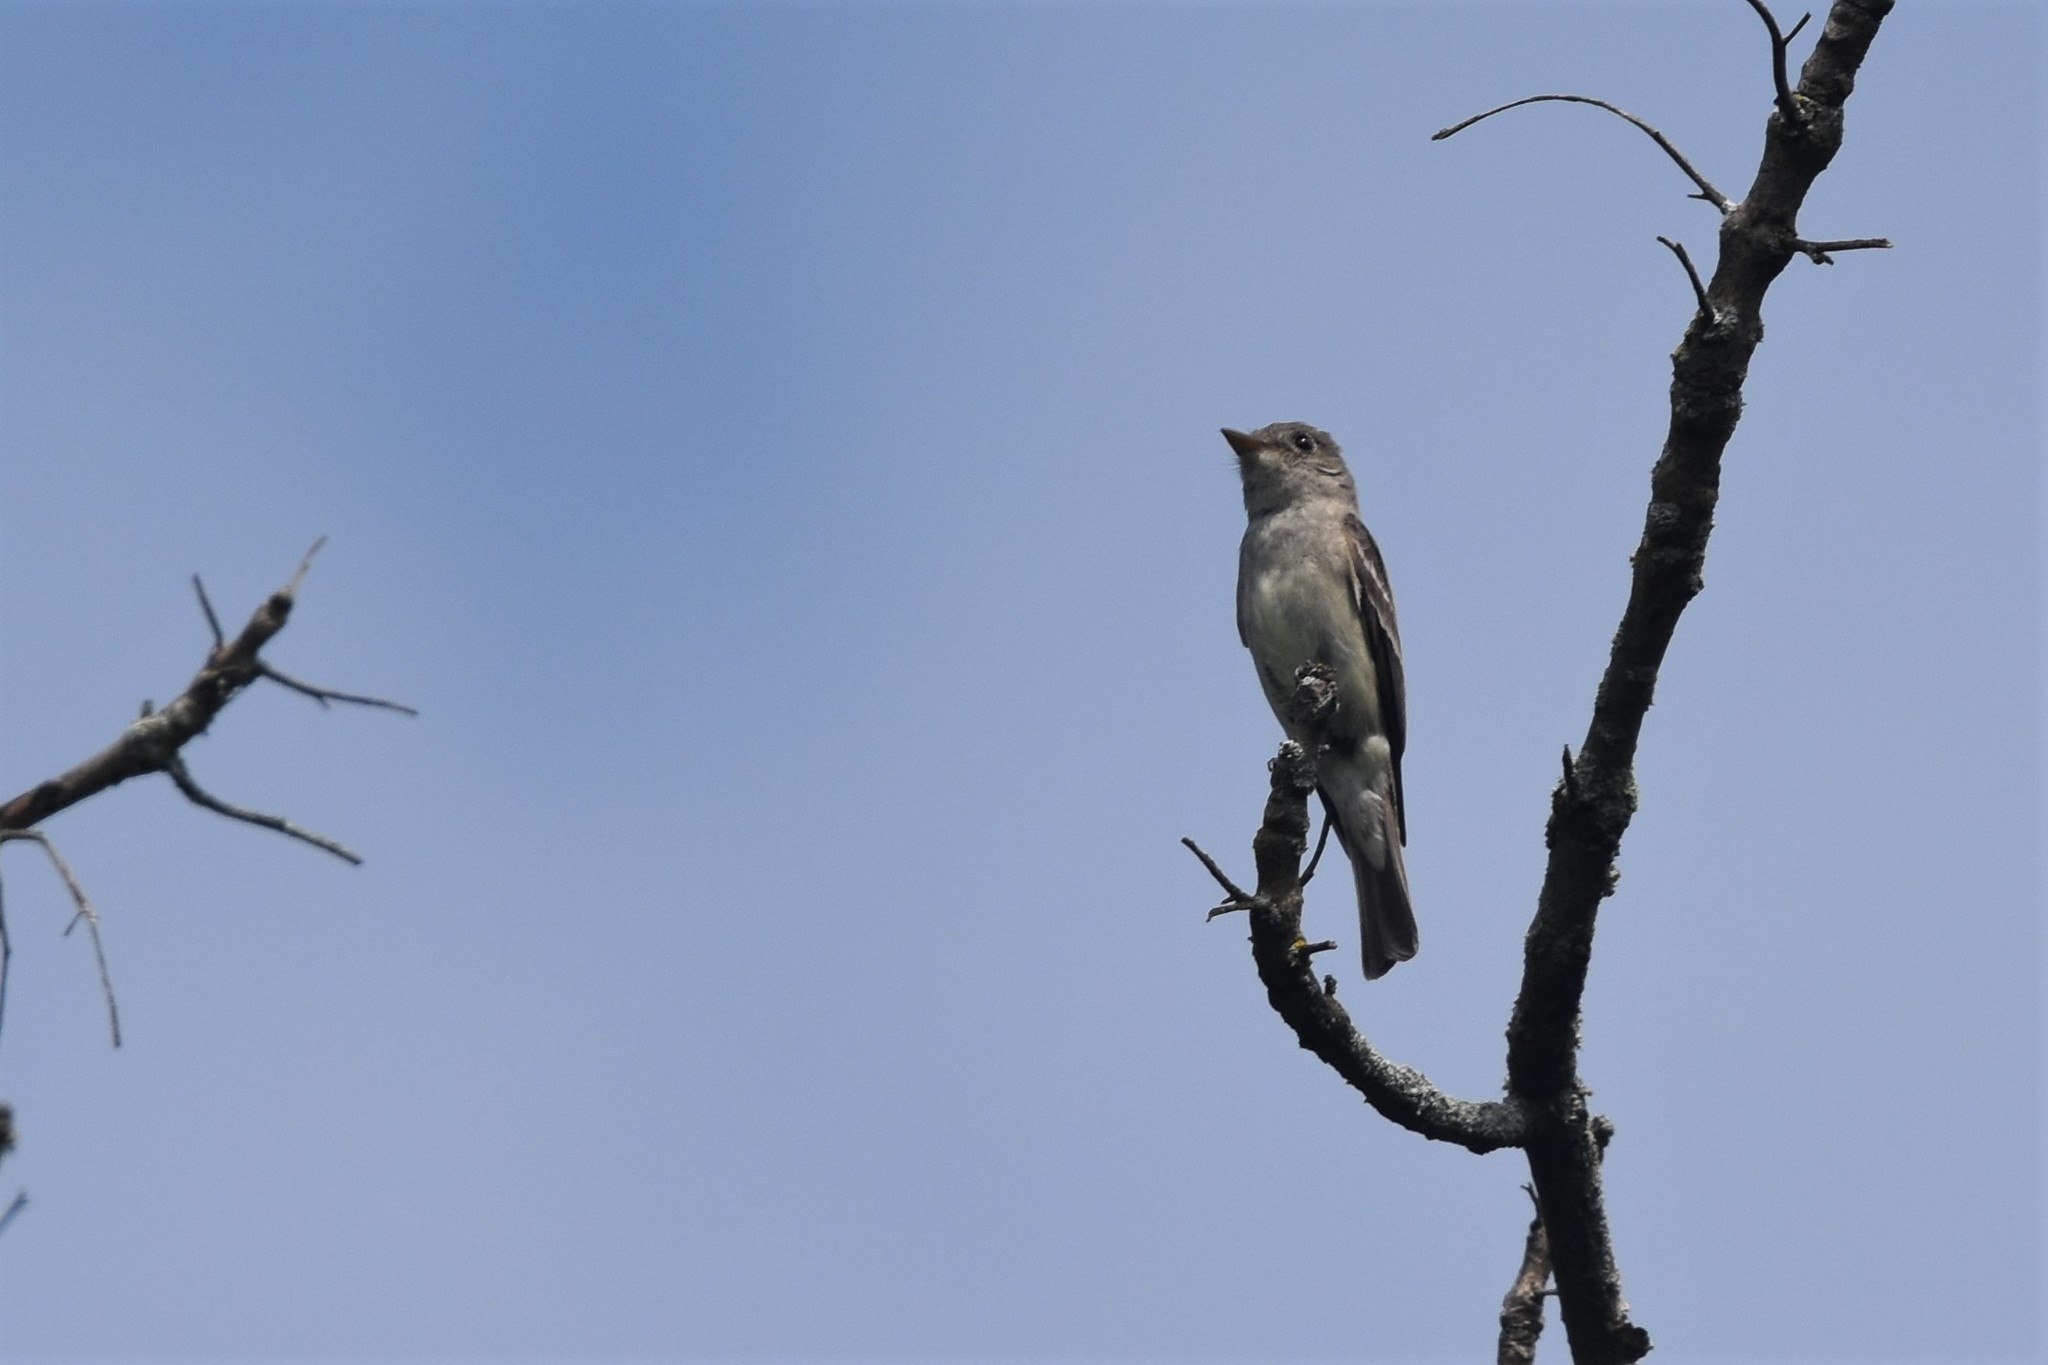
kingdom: Animalia
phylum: Chordata
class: Aves
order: Passeriformes
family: Tyrannidae
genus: Contopus
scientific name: Contopus virens
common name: Eastern wood-pewee
